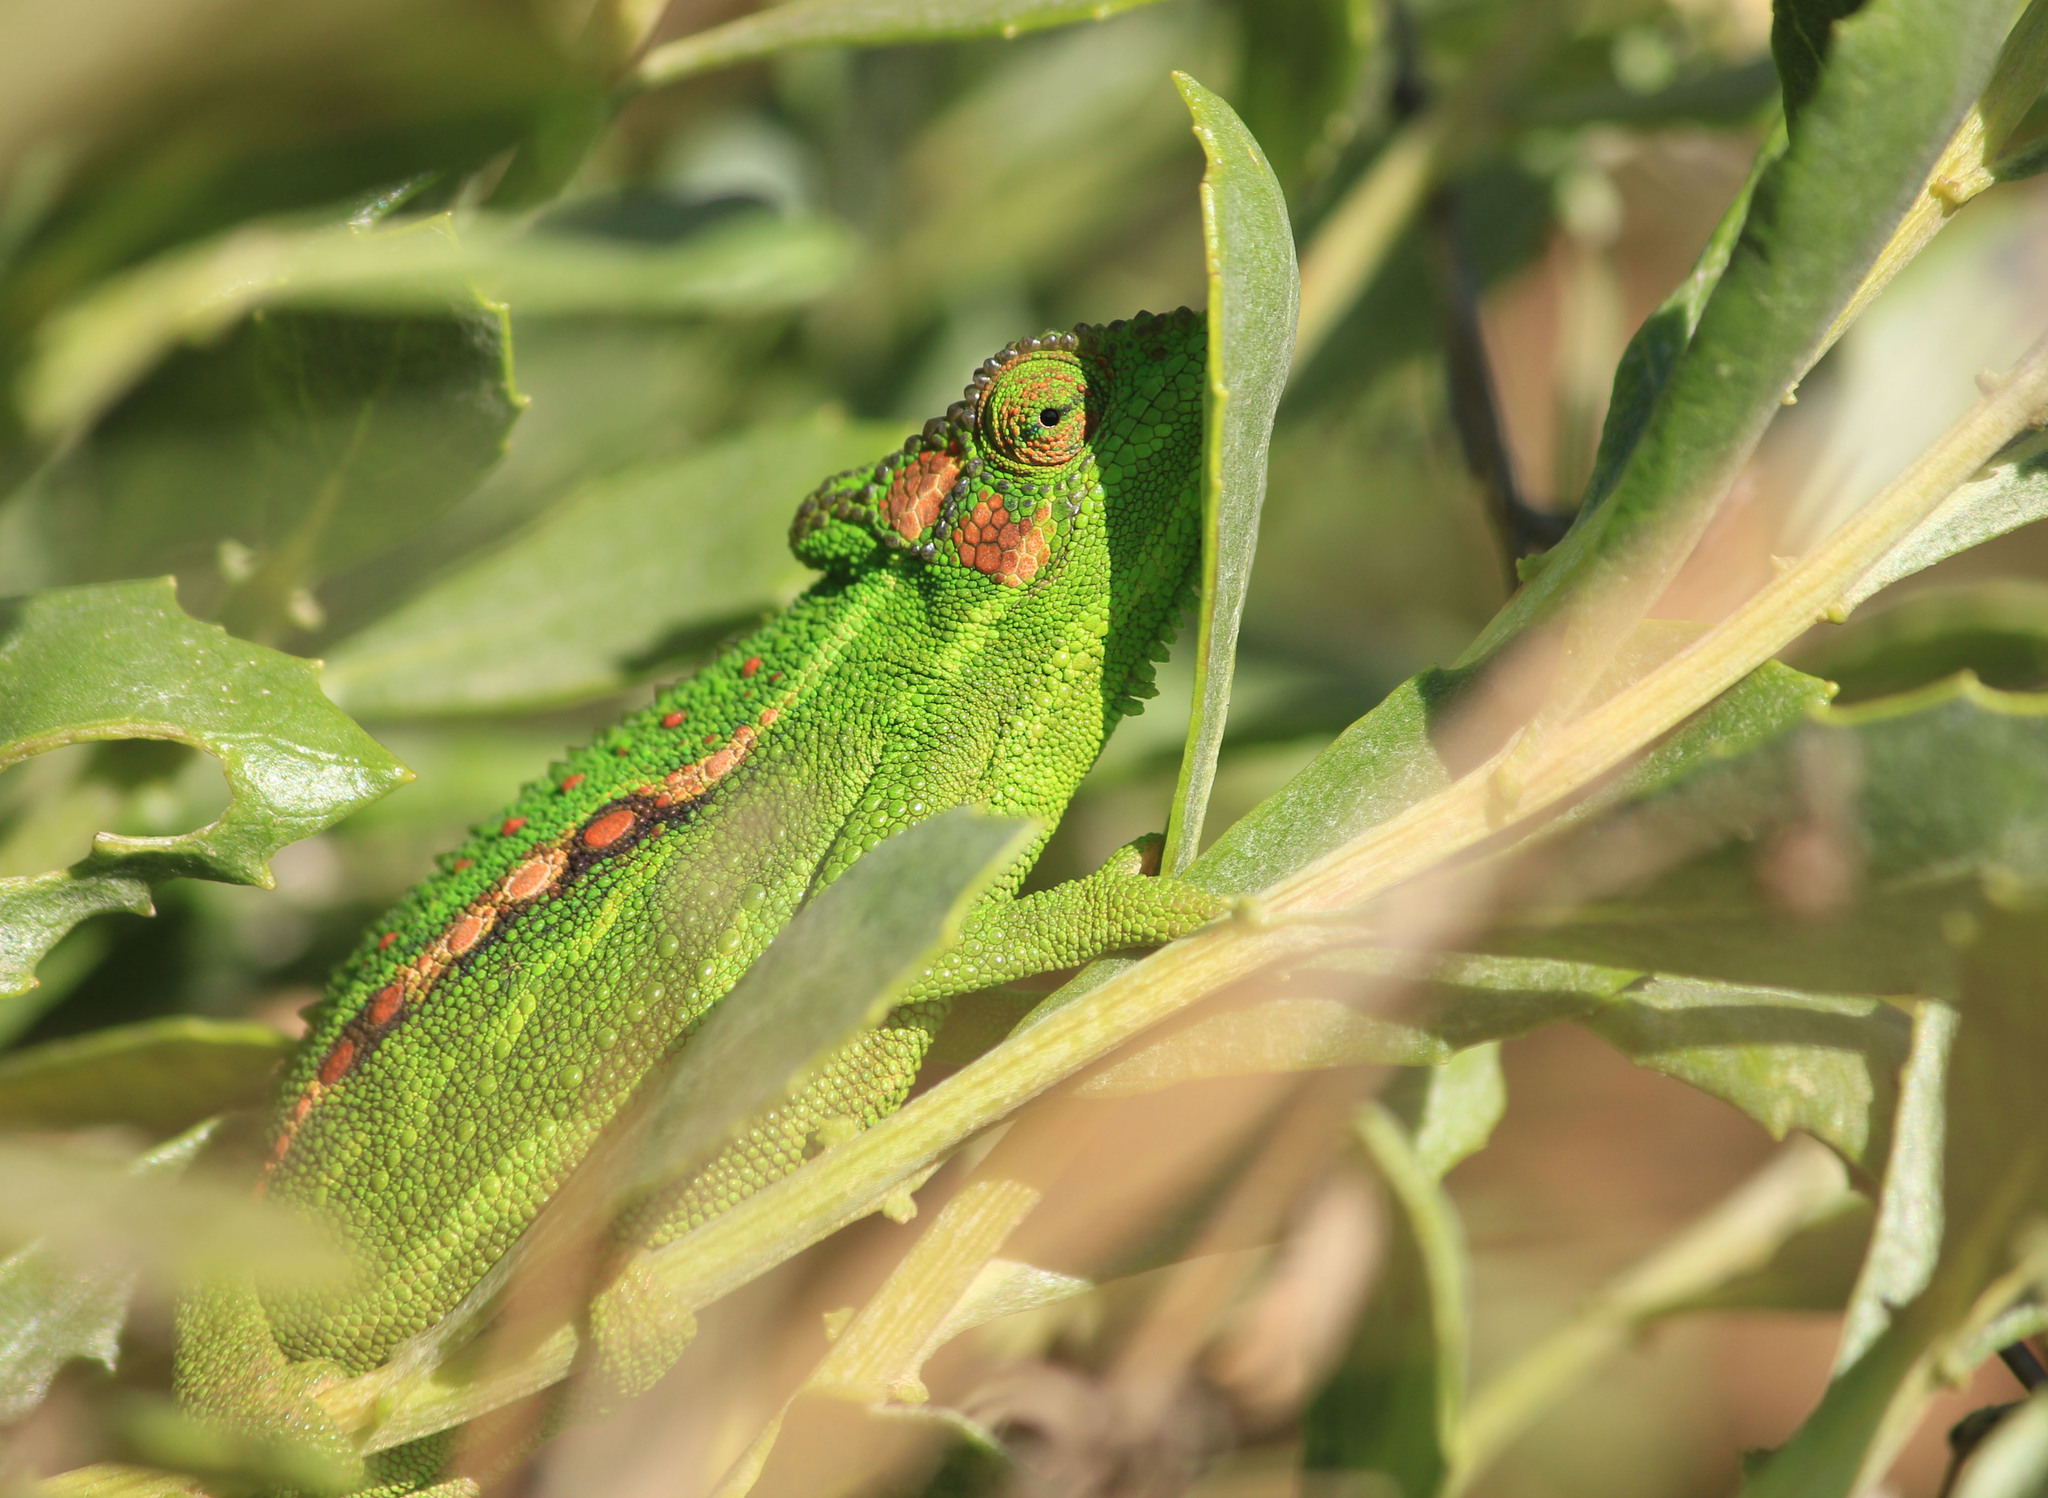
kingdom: Animalia
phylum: Chordata
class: Squamata
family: Chamaeleonidae
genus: Bradypodion
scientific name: Bradypodion pumilum
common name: Cape dwarf chameleon
